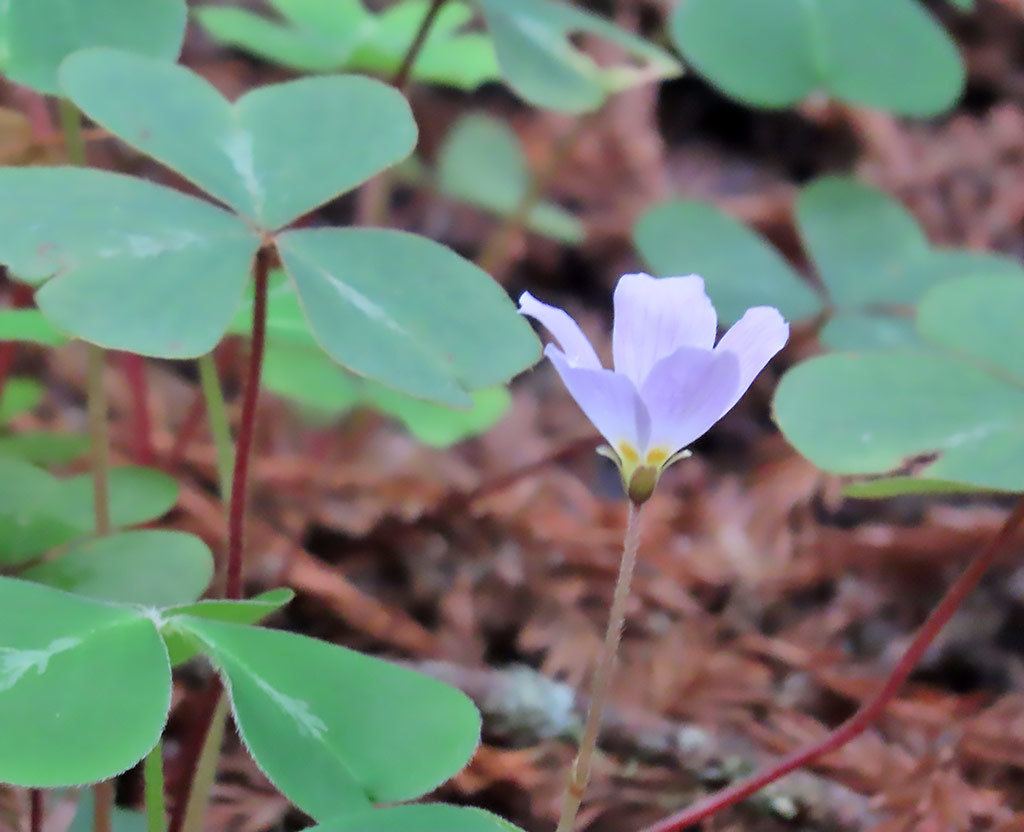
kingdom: Plantae
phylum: Tracheophyta
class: Magnoliopsida
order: Oxalidales
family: Oxalidaceae
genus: Oxalis
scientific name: Oxalis oregana
